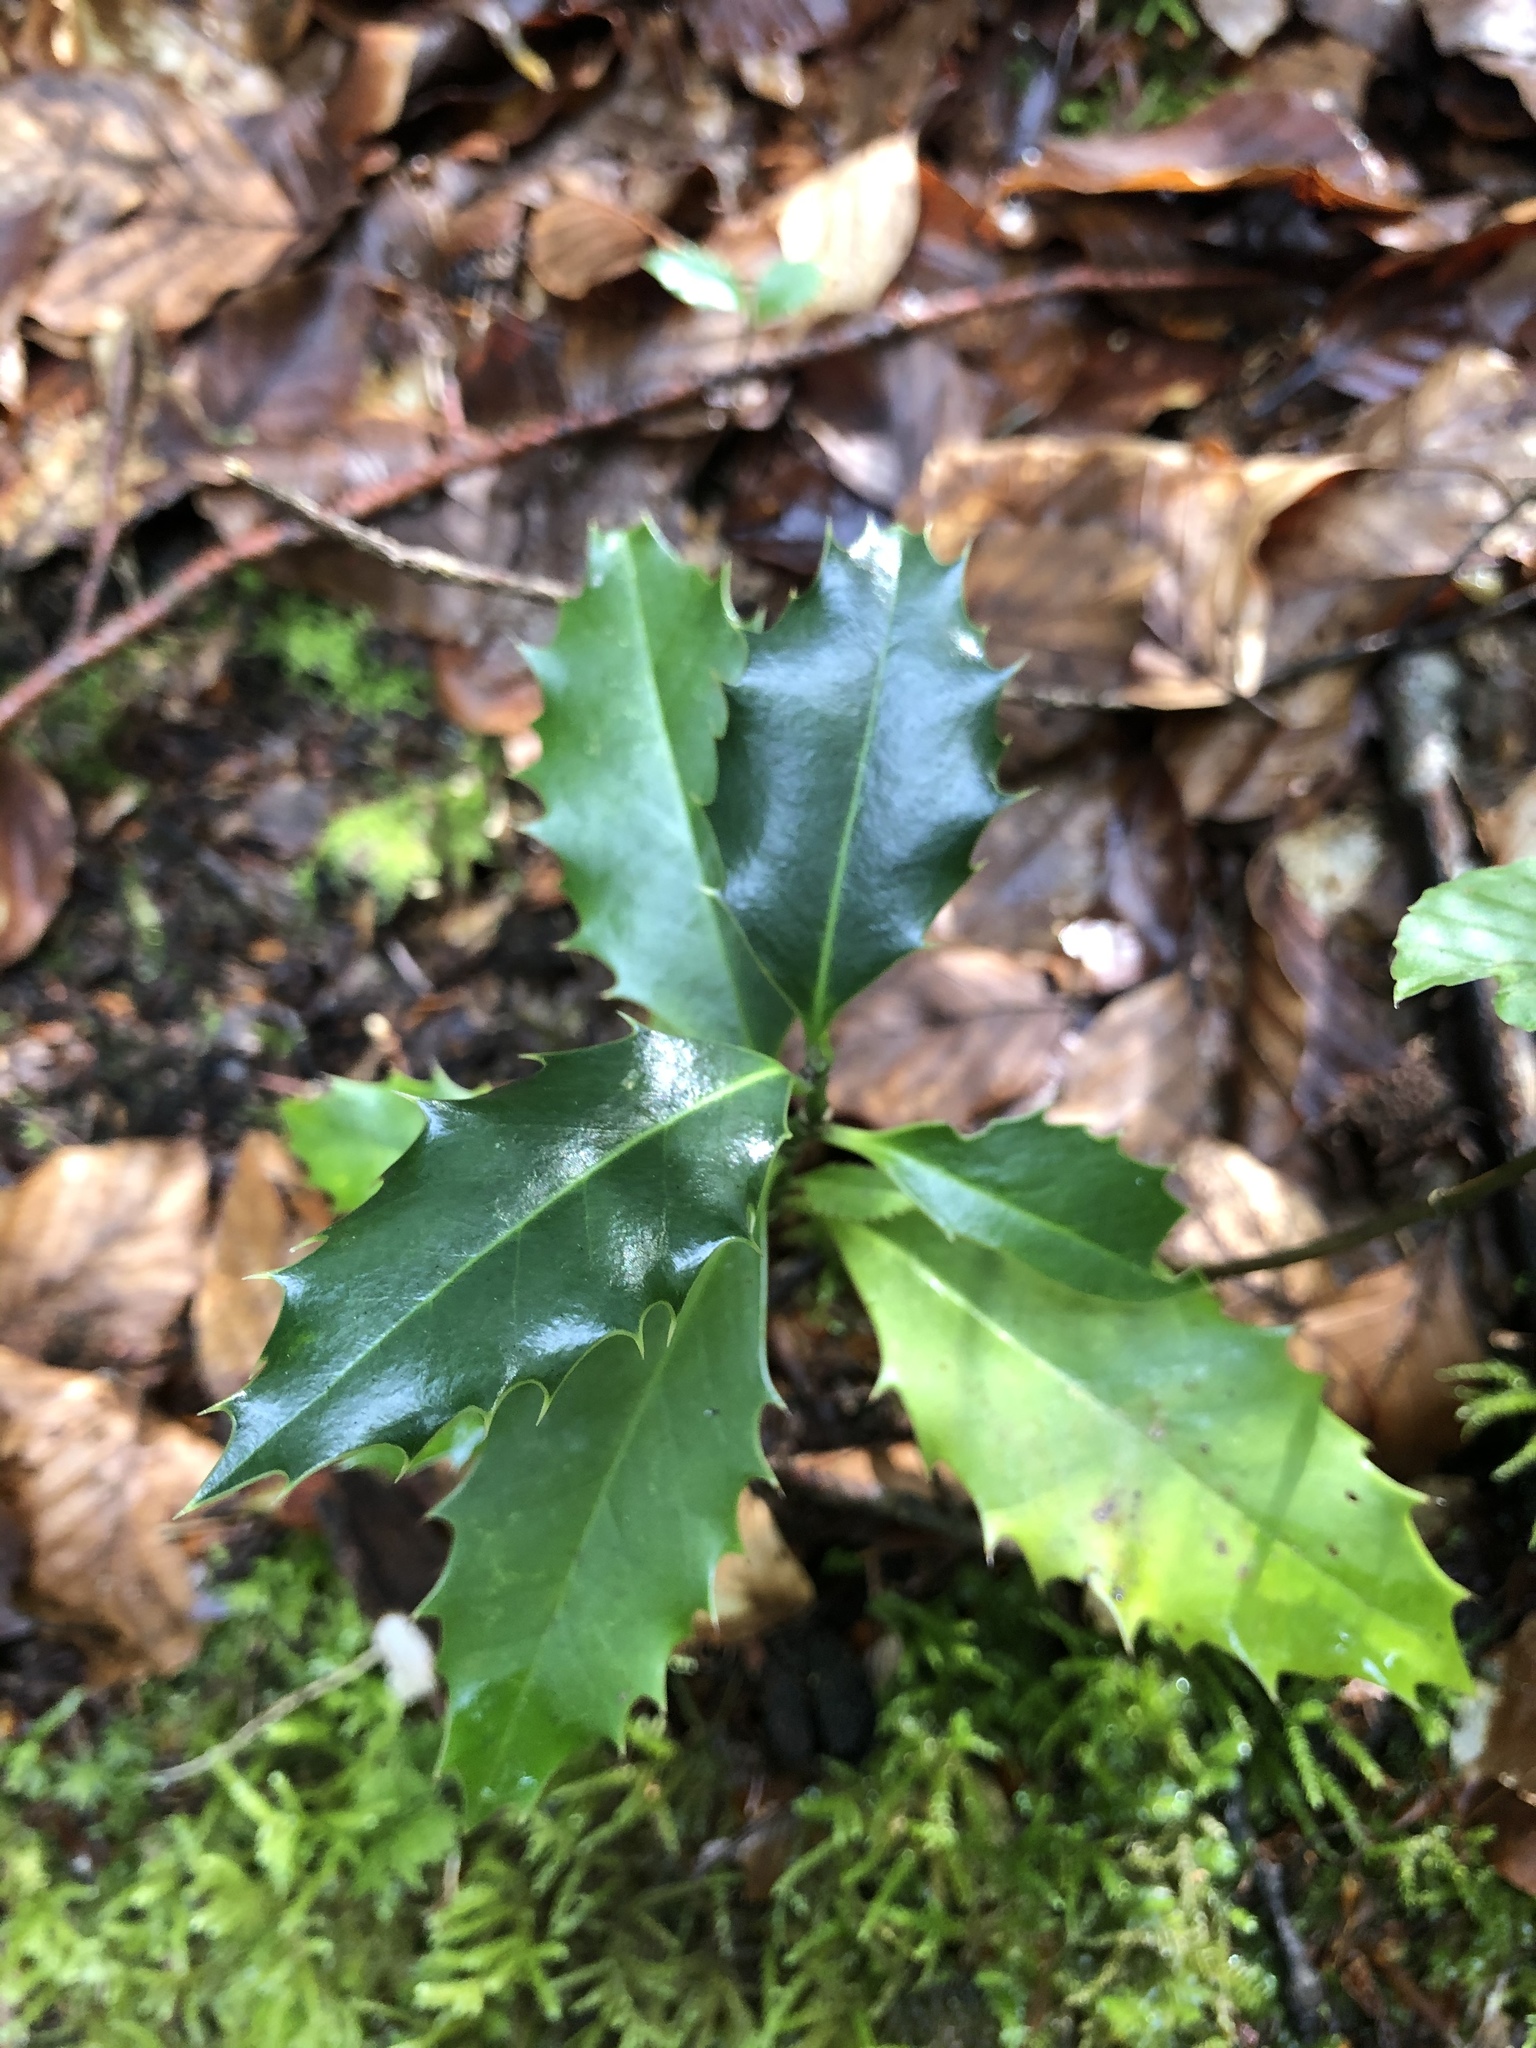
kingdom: Plantae
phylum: Tracheophyta
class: Magnoliopsida
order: Aquifoliales
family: Aquifoliaceae
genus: Ilex
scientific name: Ilex aquifolium
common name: English holly
